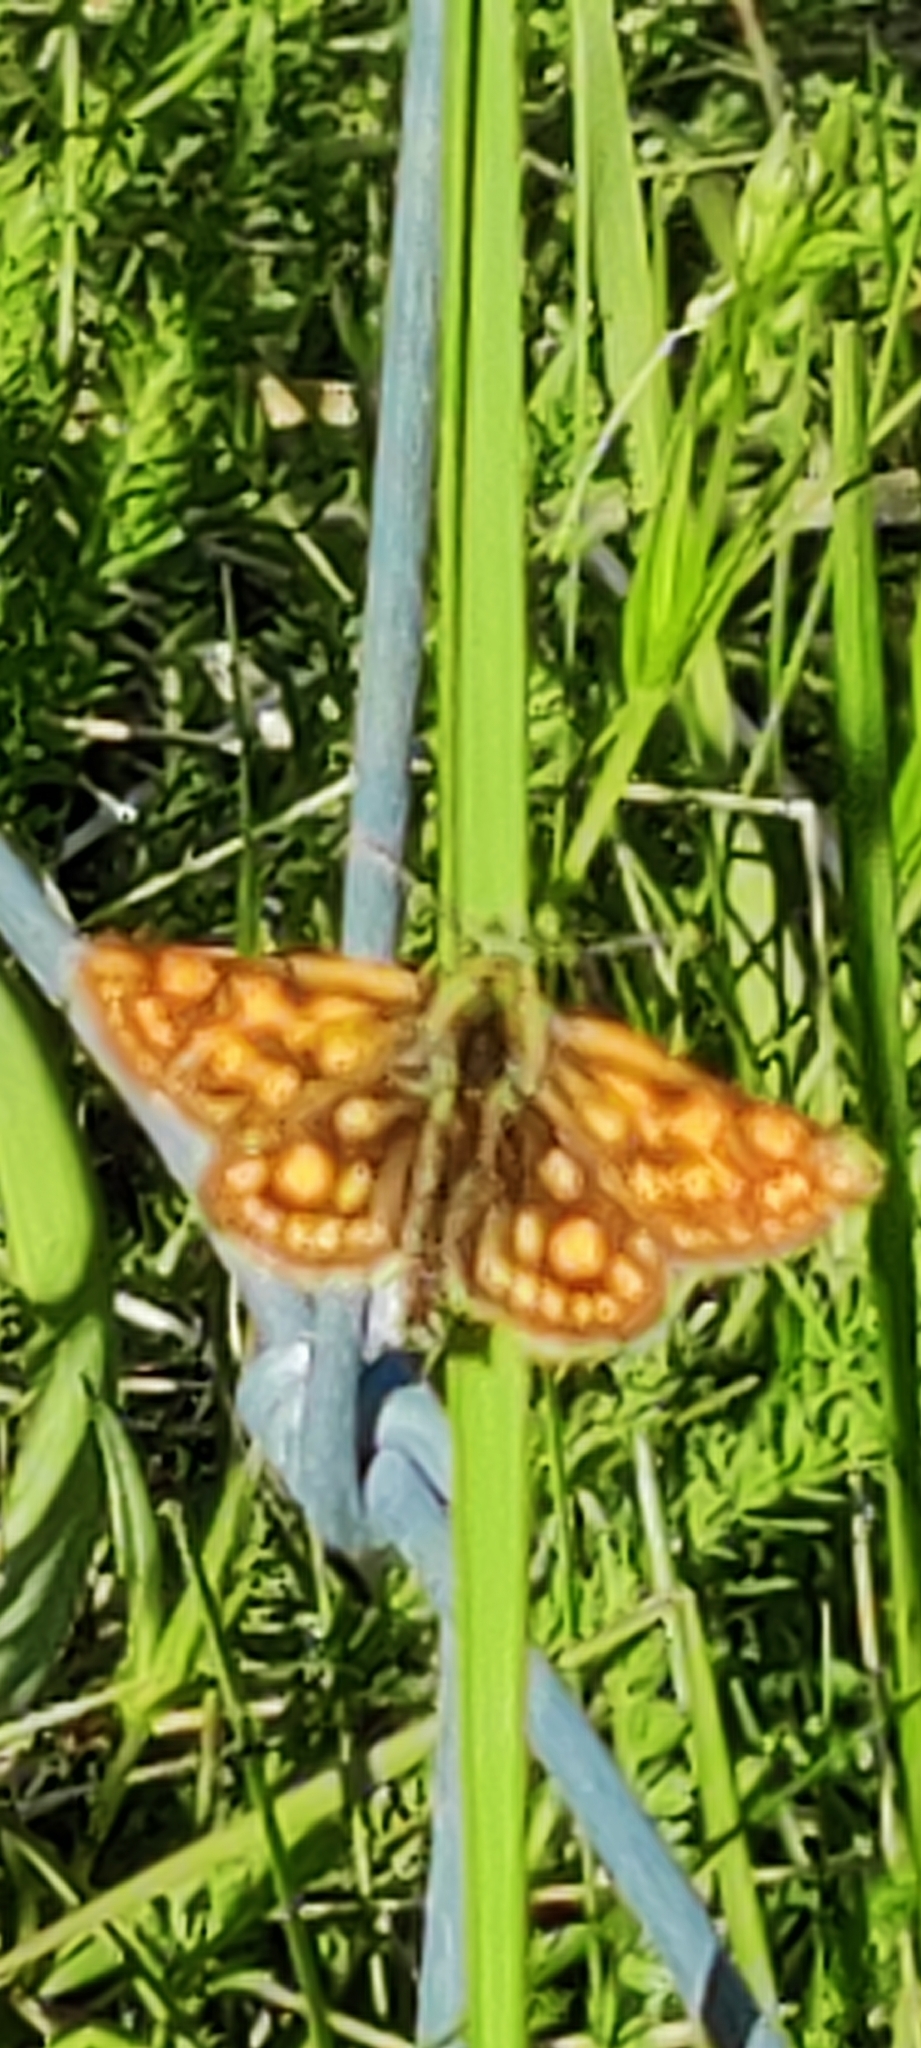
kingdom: Animalia
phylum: Arthropoda
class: Insecta
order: Lepidoptera
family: Hesperiidae
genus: Carterocephalus
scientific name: Carterocephalus palaemon
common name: Chequered skipper
